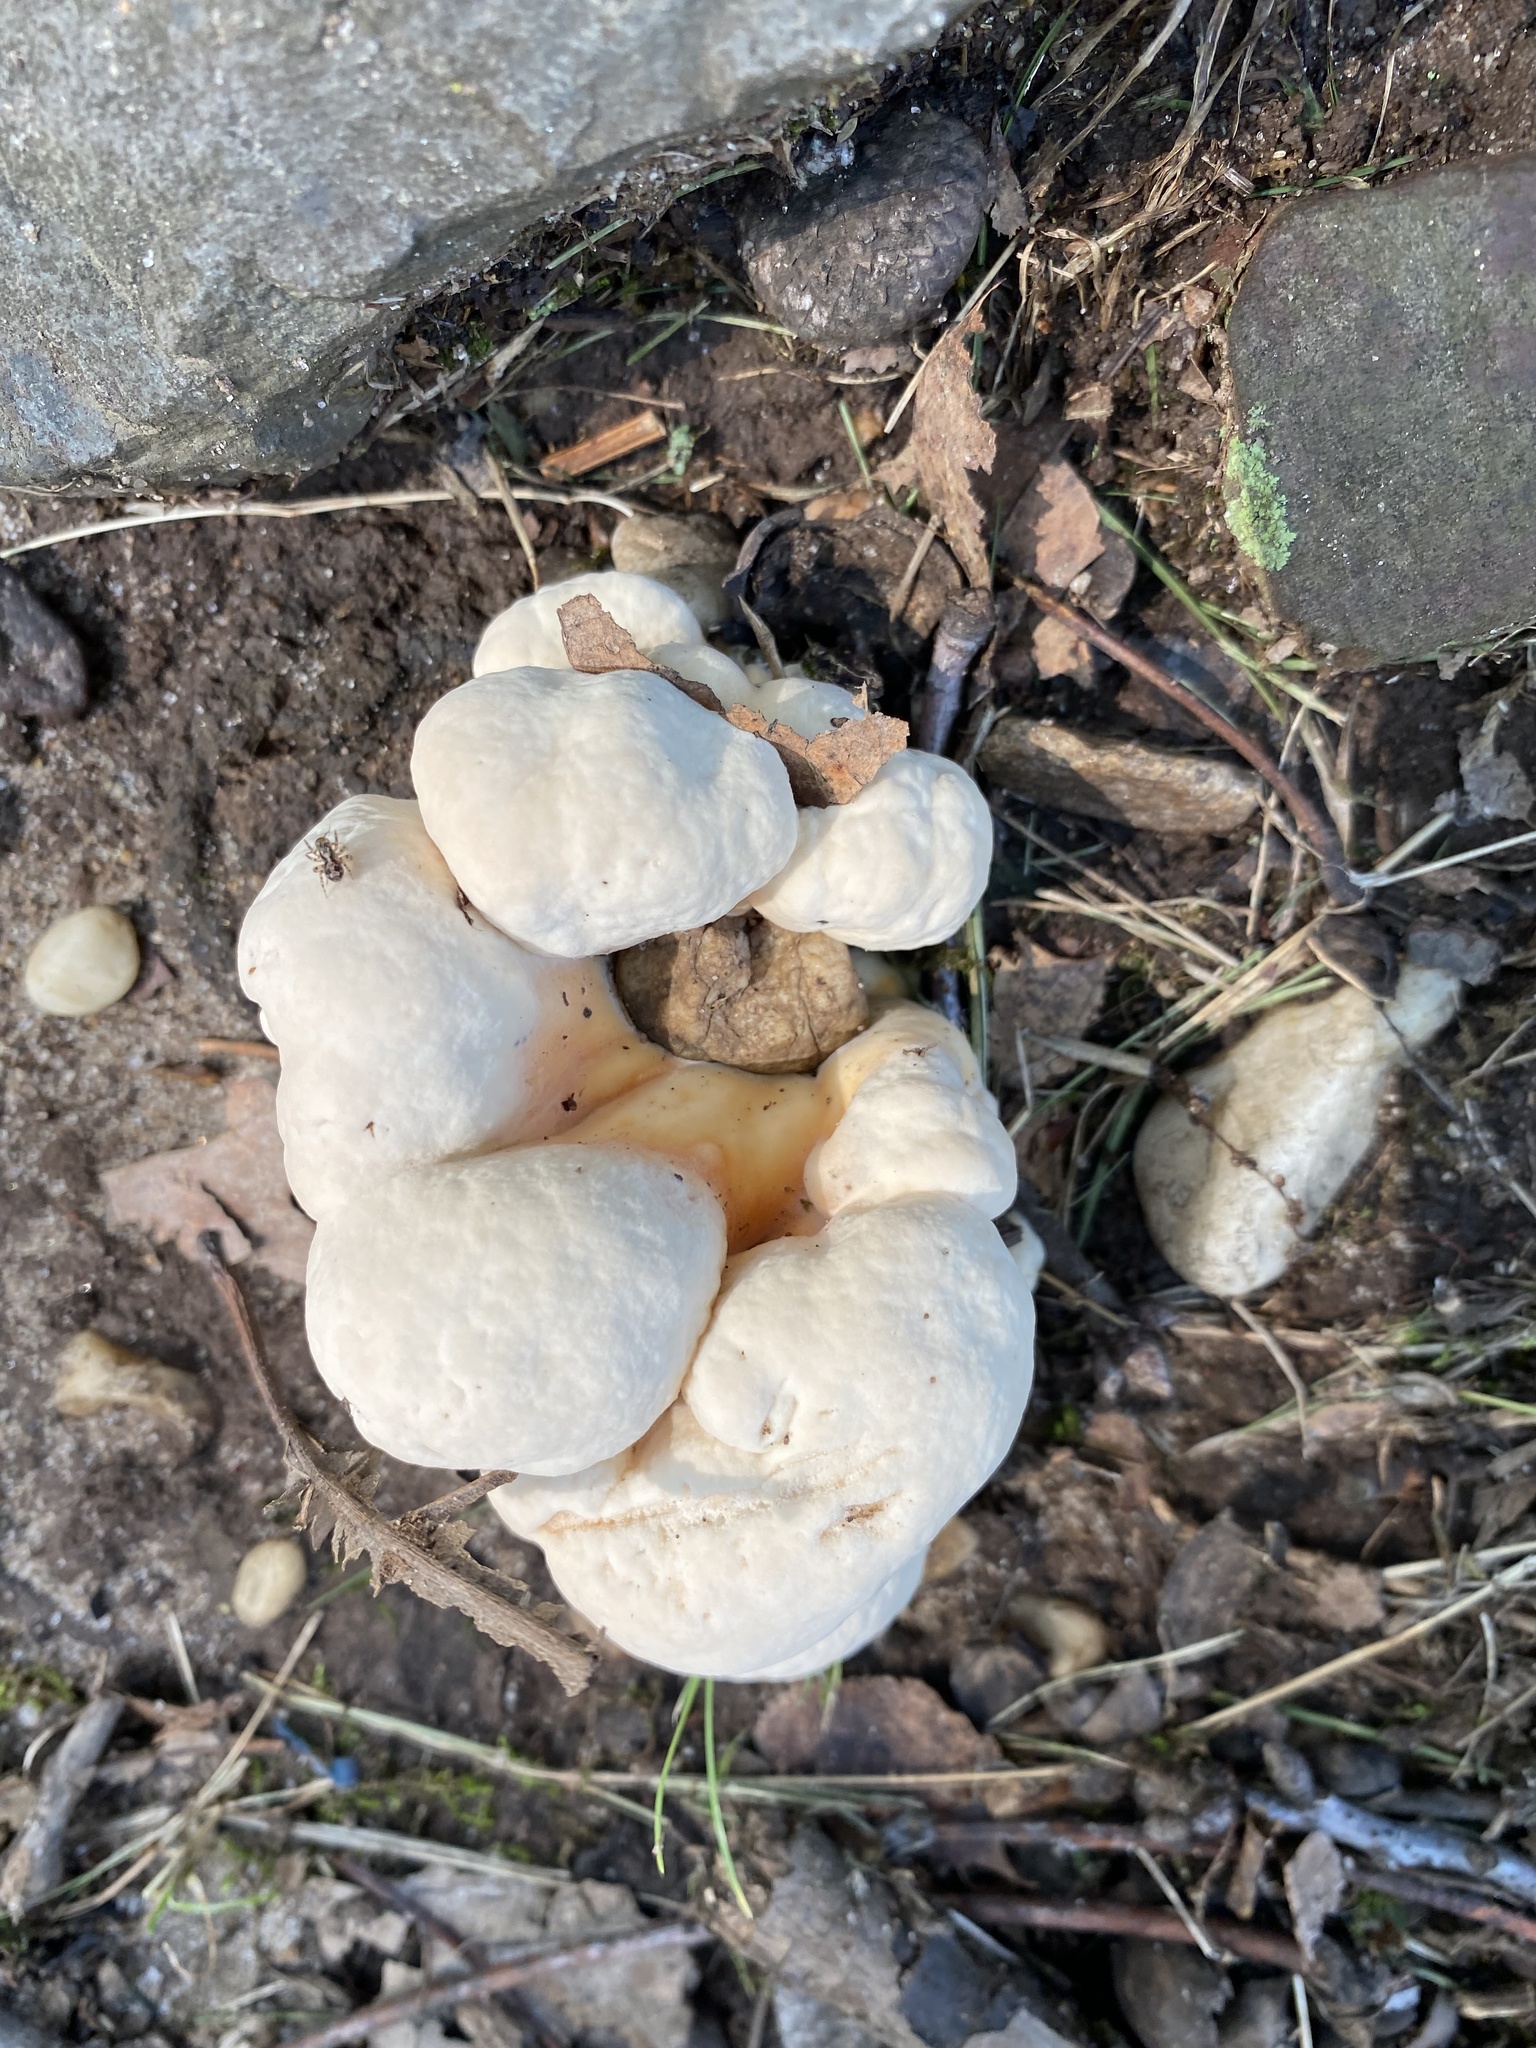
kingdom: Fungi
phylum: Basidiomycota
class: Agaricomycetes
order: Polyporales
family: Laetiporaceae
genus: Laetiporus
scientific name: Laetiporus sulphureus
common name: Chicken of the woods
